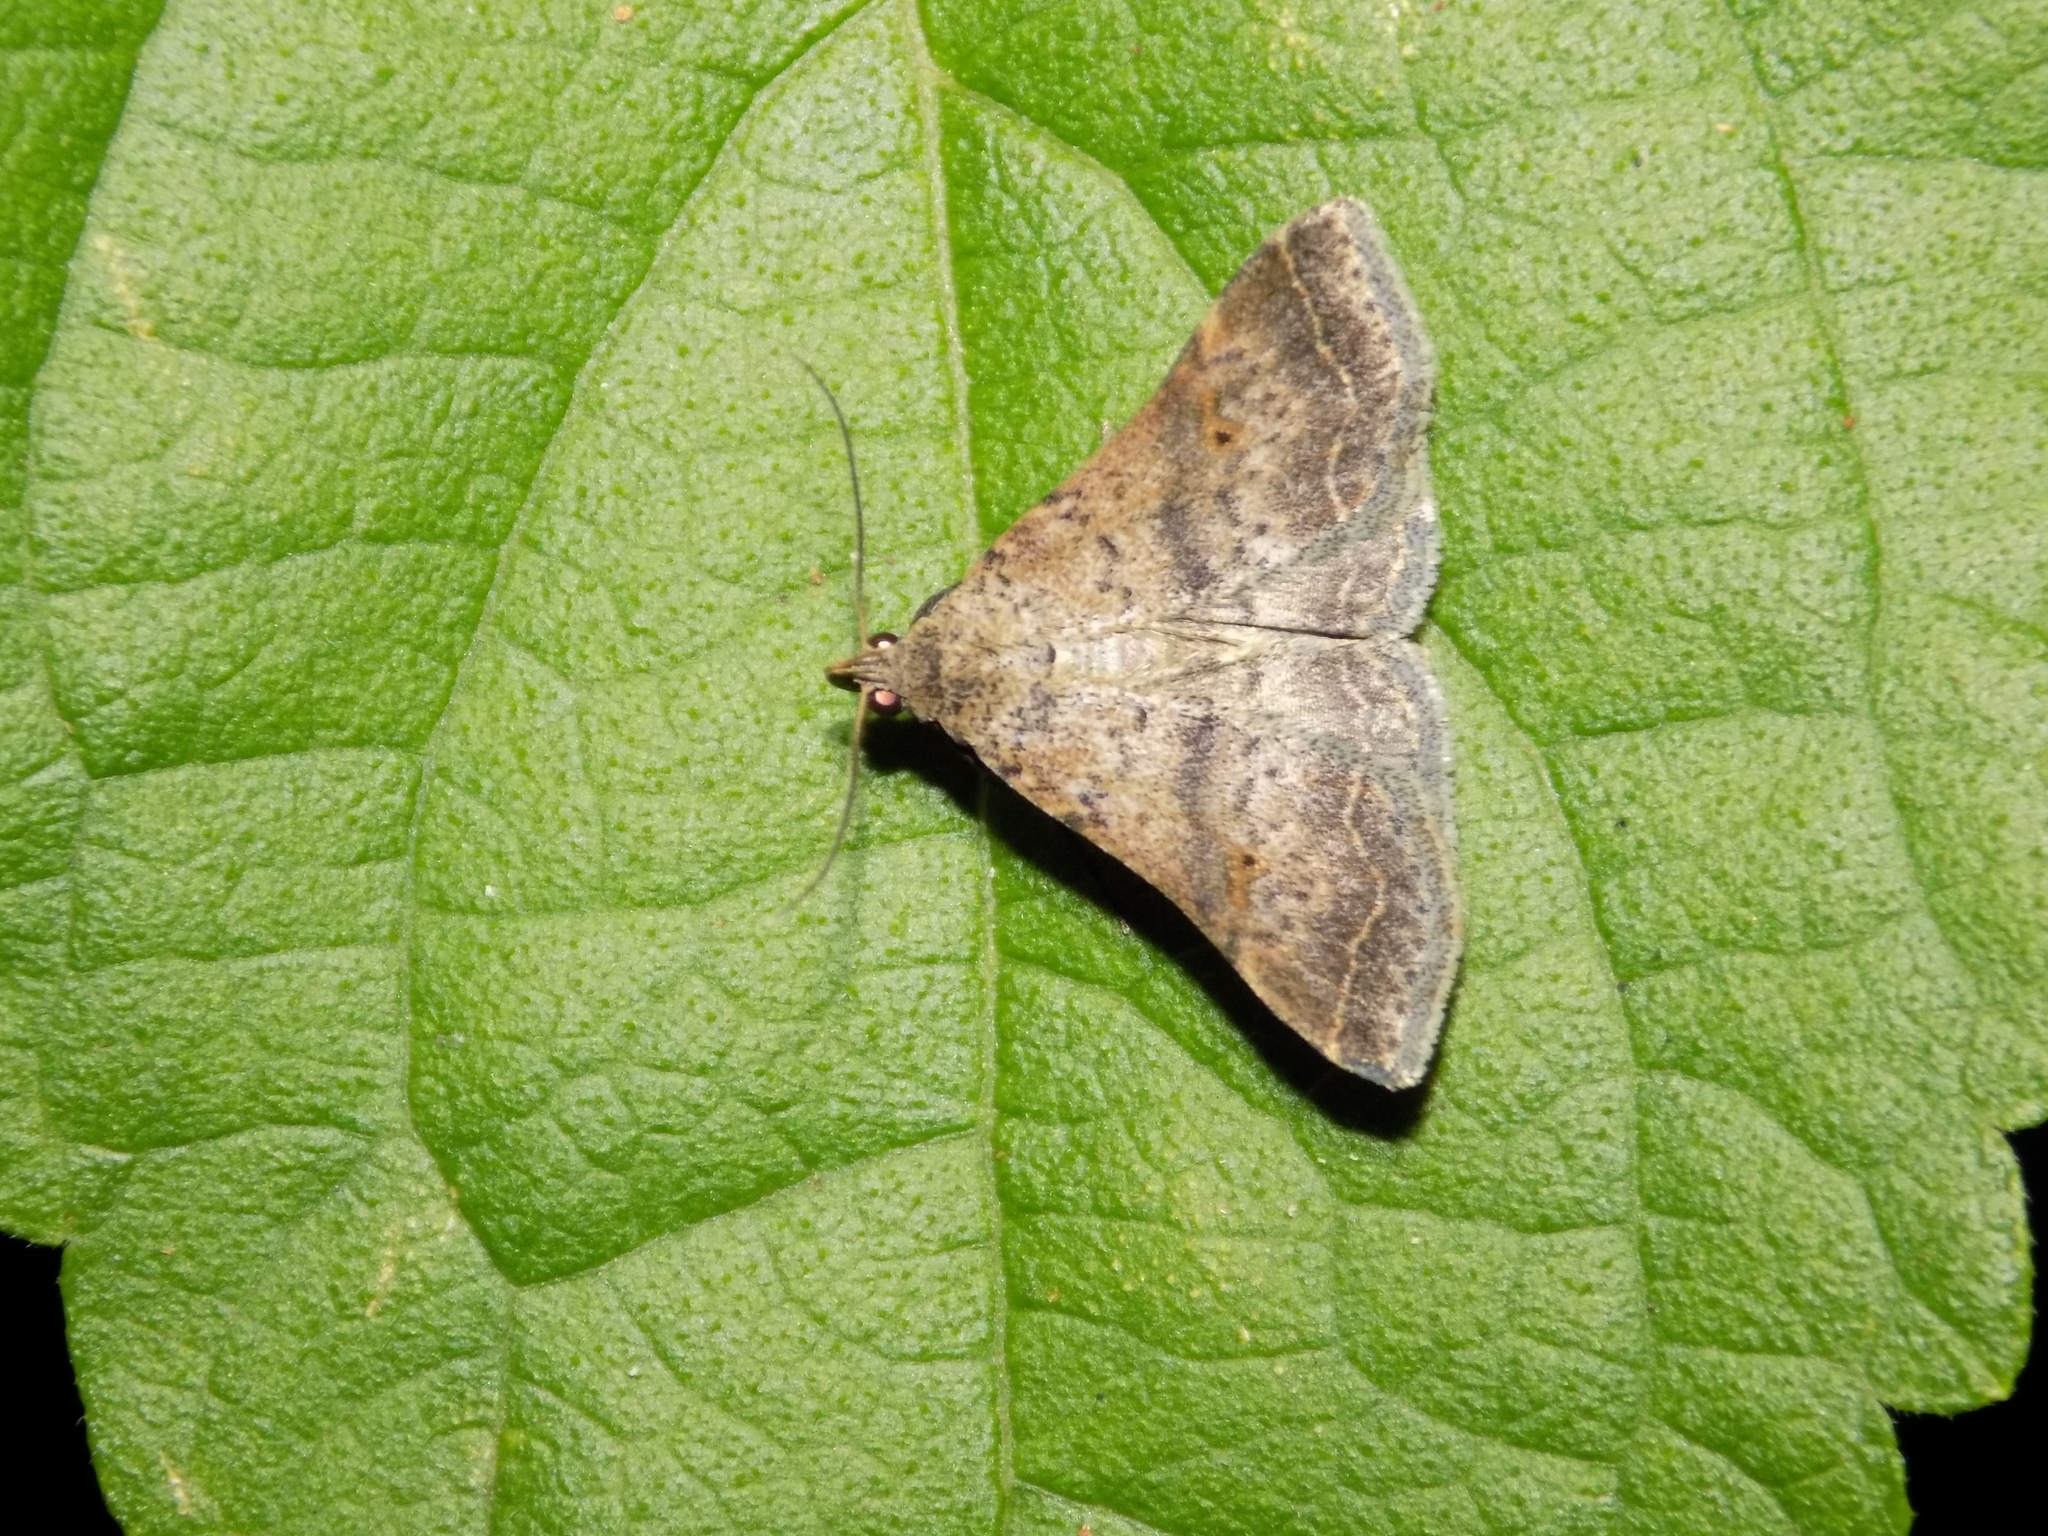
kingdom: Animalia
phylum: Arthropoda
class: Insecta
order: Lepidoptera
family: Erebidae
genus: Bleptina
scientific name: Bleptina caradrinalis
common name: Bent-winged owlet
